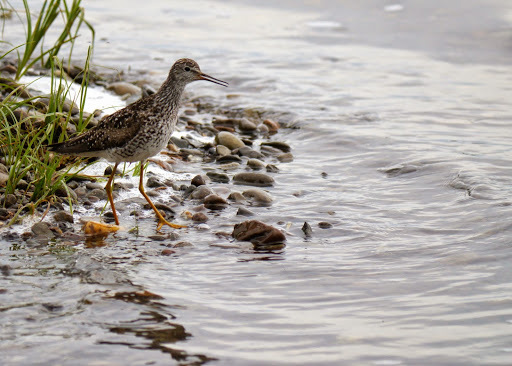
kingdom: Animalia
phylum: Chordata
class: Aves
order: Charadriiformes
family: Scolopacidae
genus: Tringa
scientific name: Tringa flavipes
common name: Lesser yellowlegs
